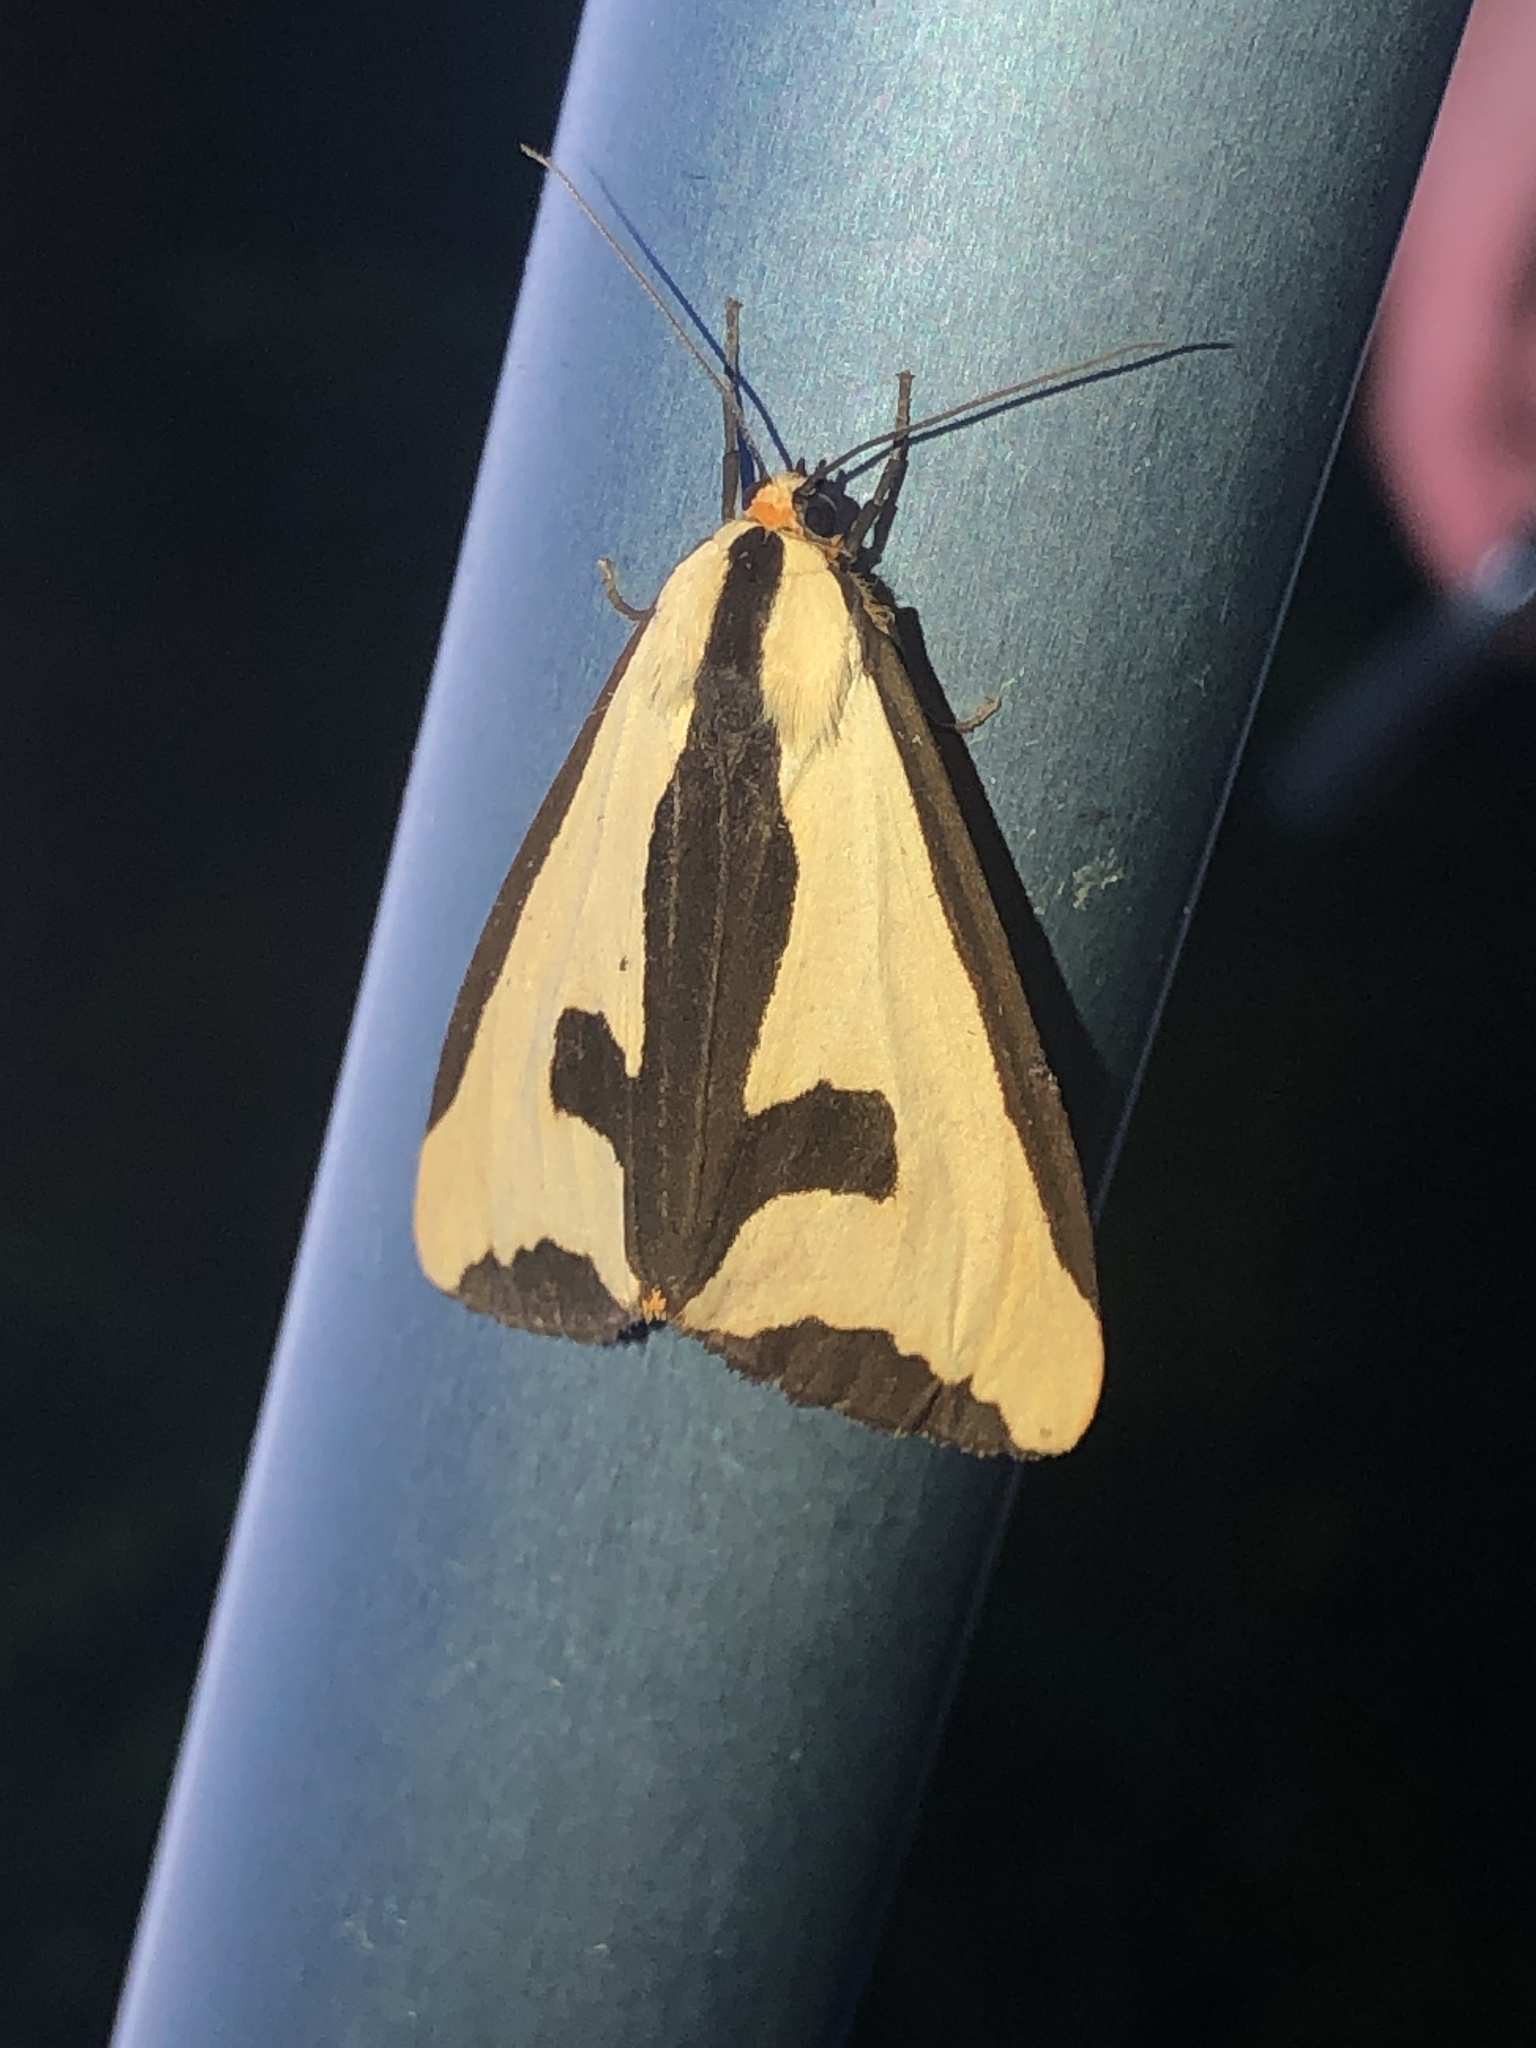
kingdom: Animalia
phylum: Arthropoda
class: Insecta
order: Lepidoptera
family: Erebidae
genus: Haploa
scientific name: Haploa clymene
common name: Clymene moth
